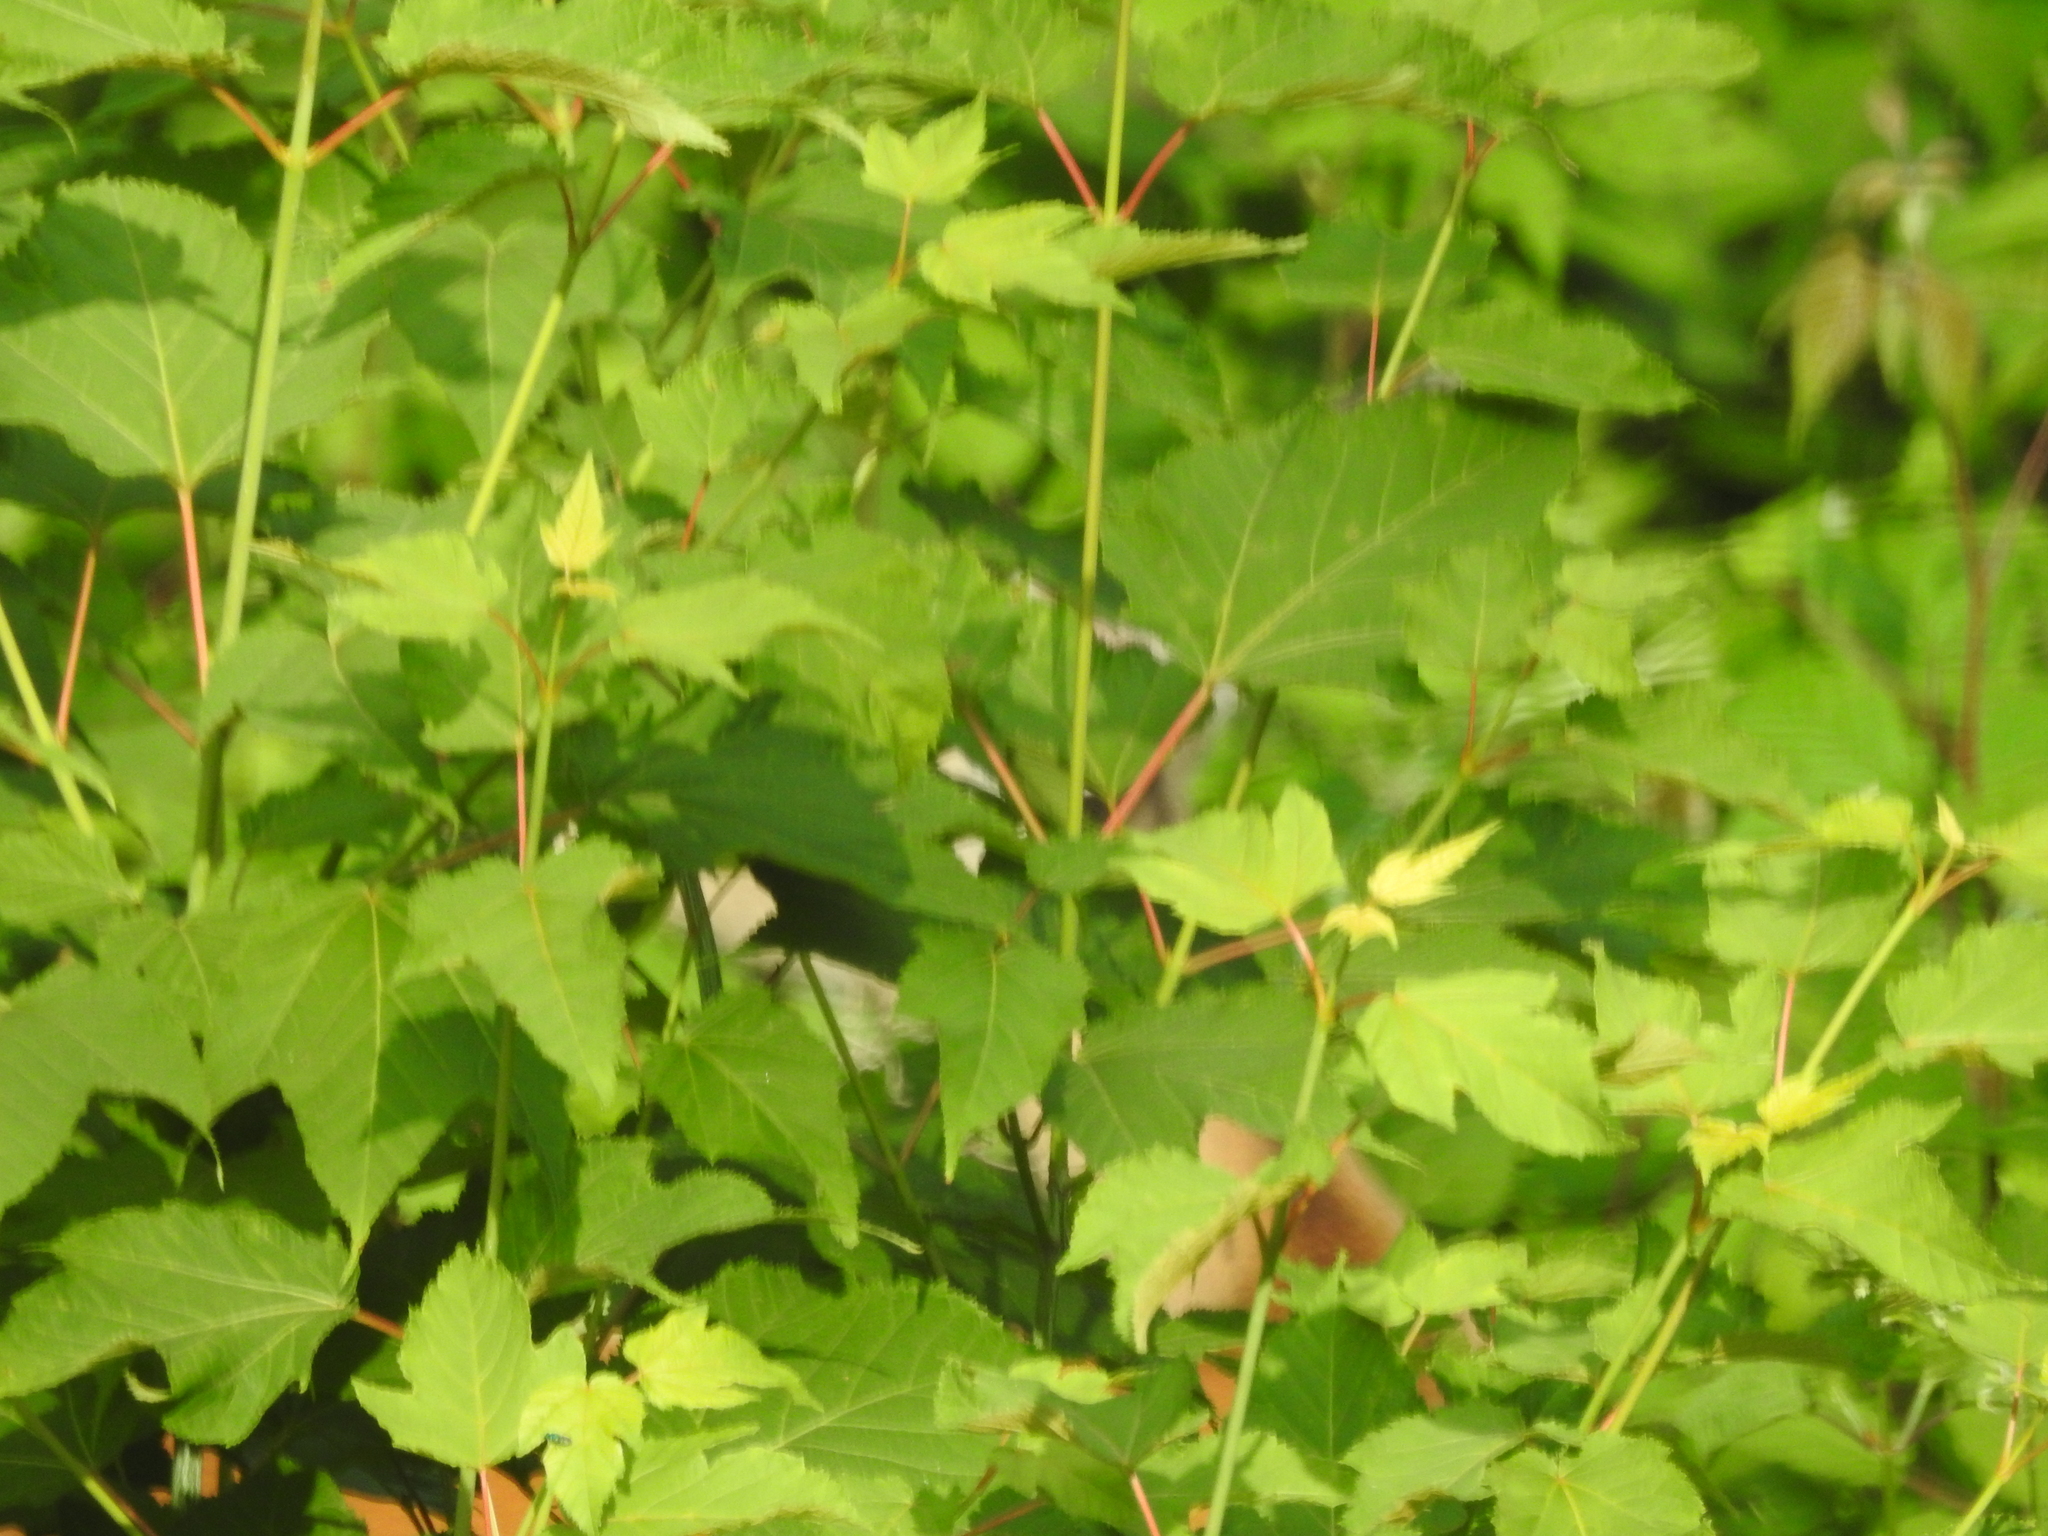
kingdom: Plantae
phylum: Tracheophyta
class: Magnoliopsida
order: Sapindales
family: Sapindaceae
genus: Acer
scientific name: Acer rubrum
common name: Red maple
